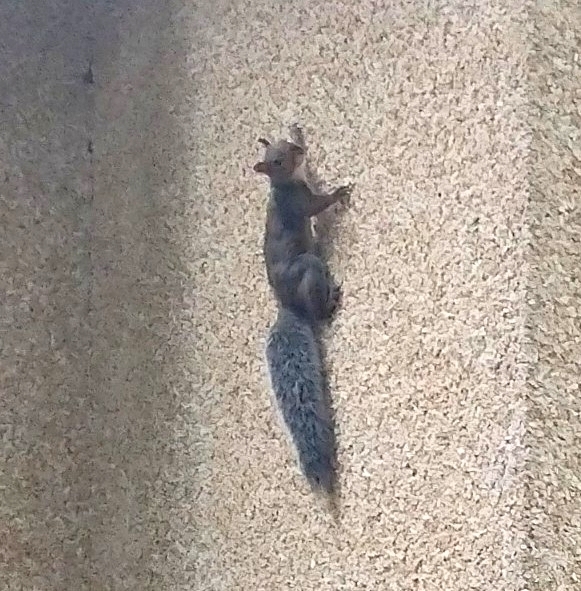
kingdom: Animalia
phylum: Chordata
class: Mammalia
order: Rodentia
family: Sciuridae
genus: Sciurus
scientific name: Sciurus carolinensis
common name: Eastern gray squirrel
